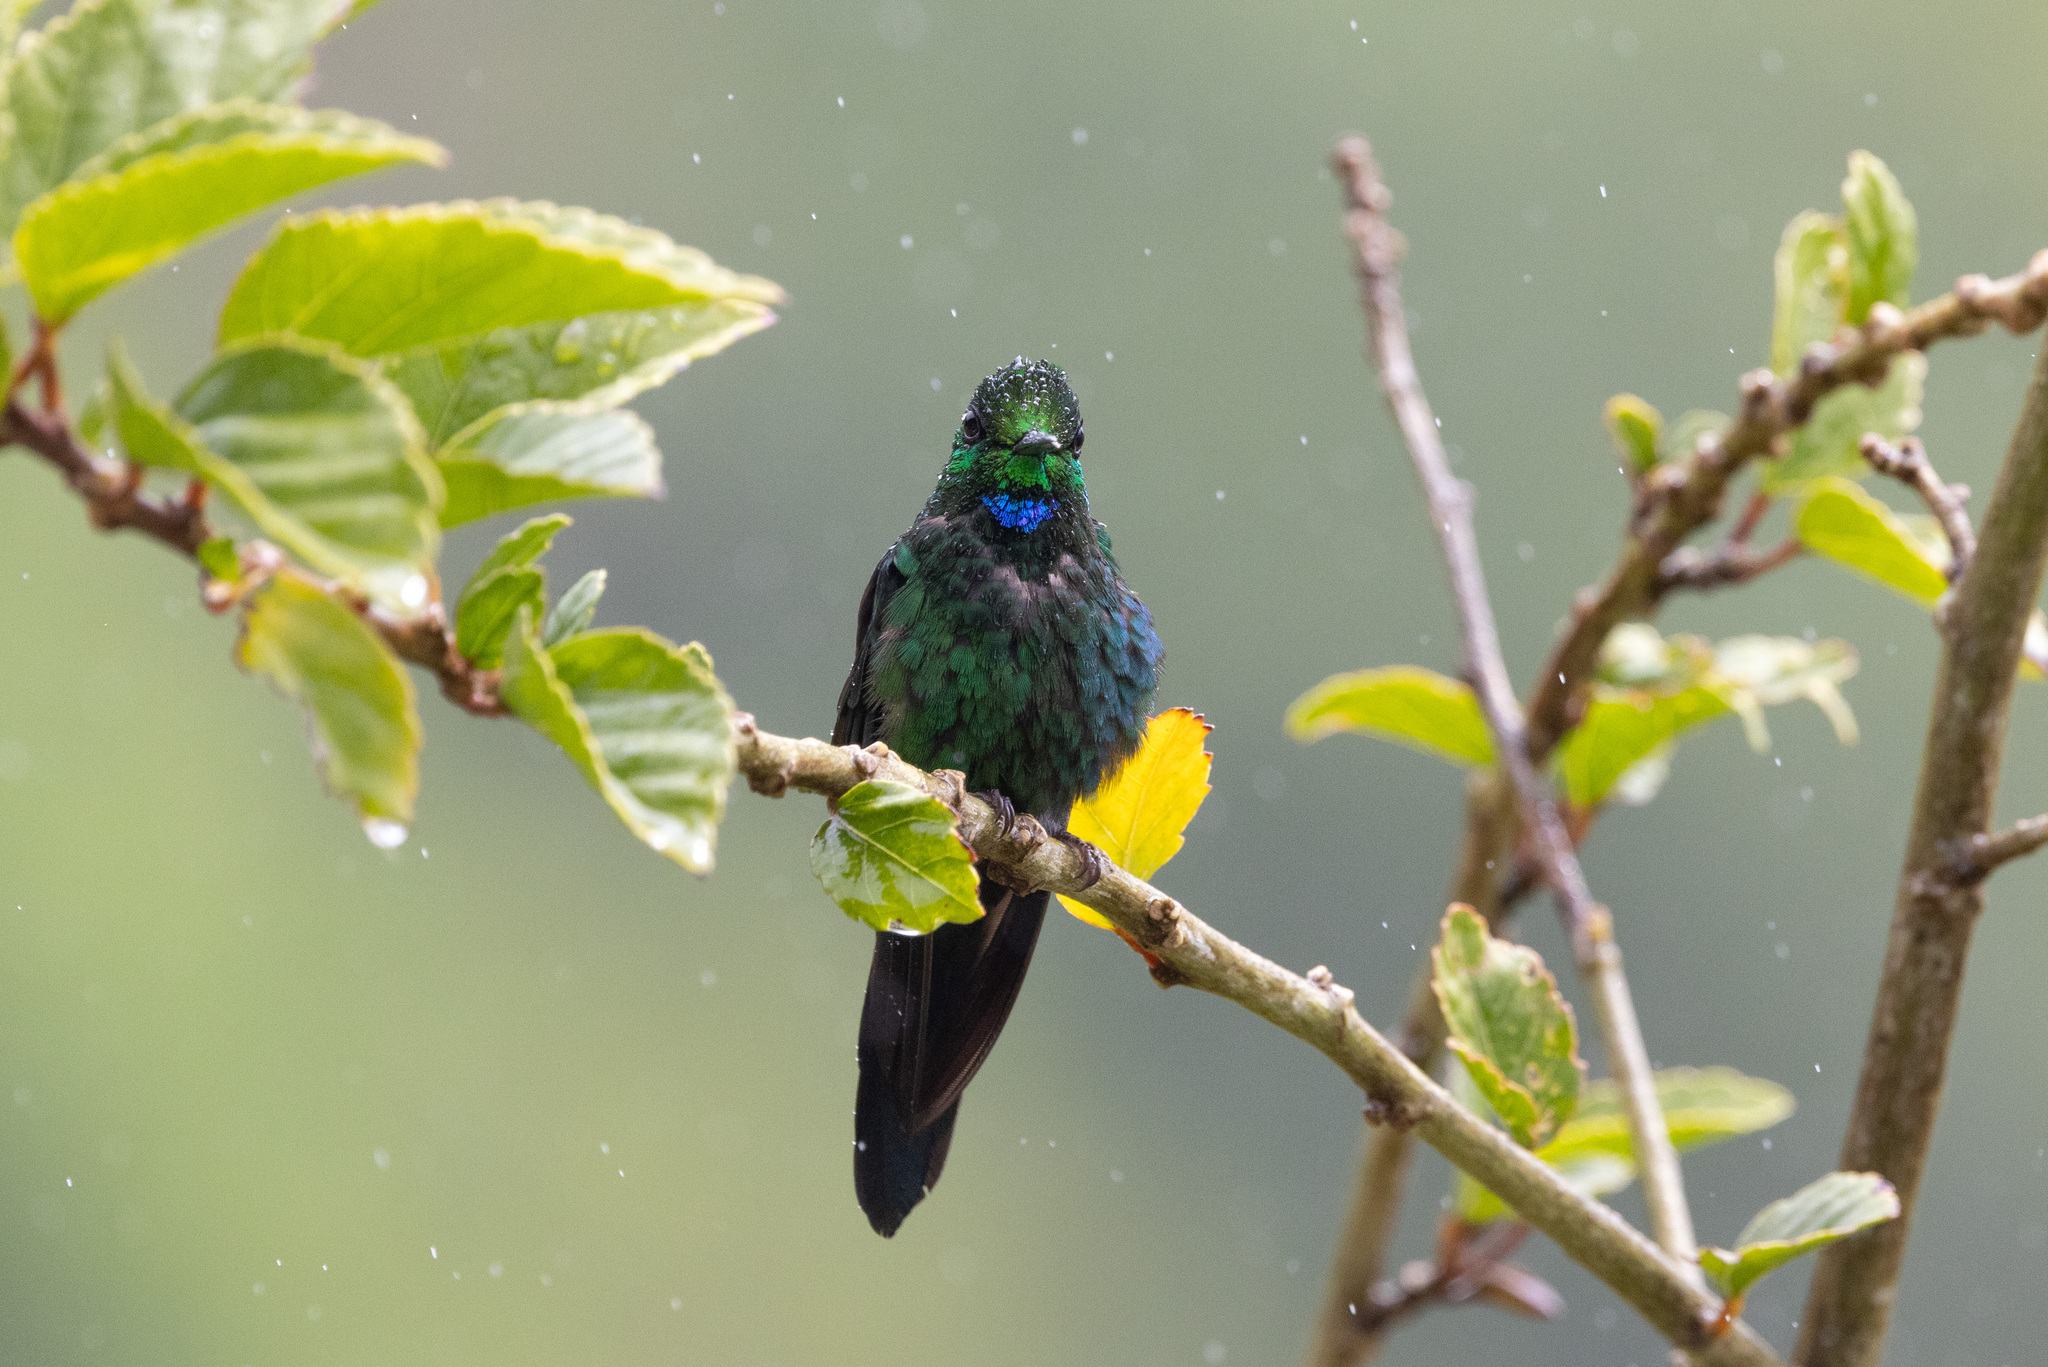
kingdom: Animalia
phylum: Chordata
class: Aves
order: Apodiformes
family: Trochilidae
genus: Heliodoxa
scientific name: Heliodoxa jacula
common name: Green-crowned brilliant
